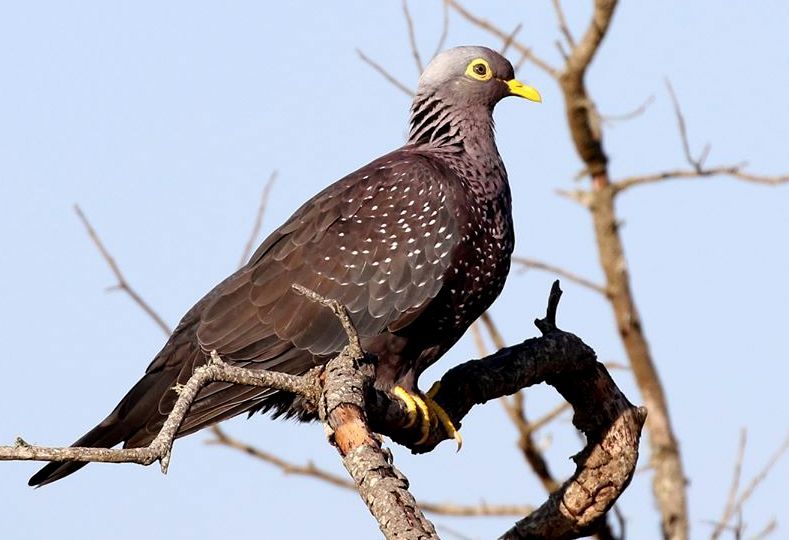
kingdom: Animalia
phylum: Chordata
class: Aves
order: Columbiformes
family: Columbidae
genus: Columba
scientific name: Columba arquatrix
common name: African olive pigeon
